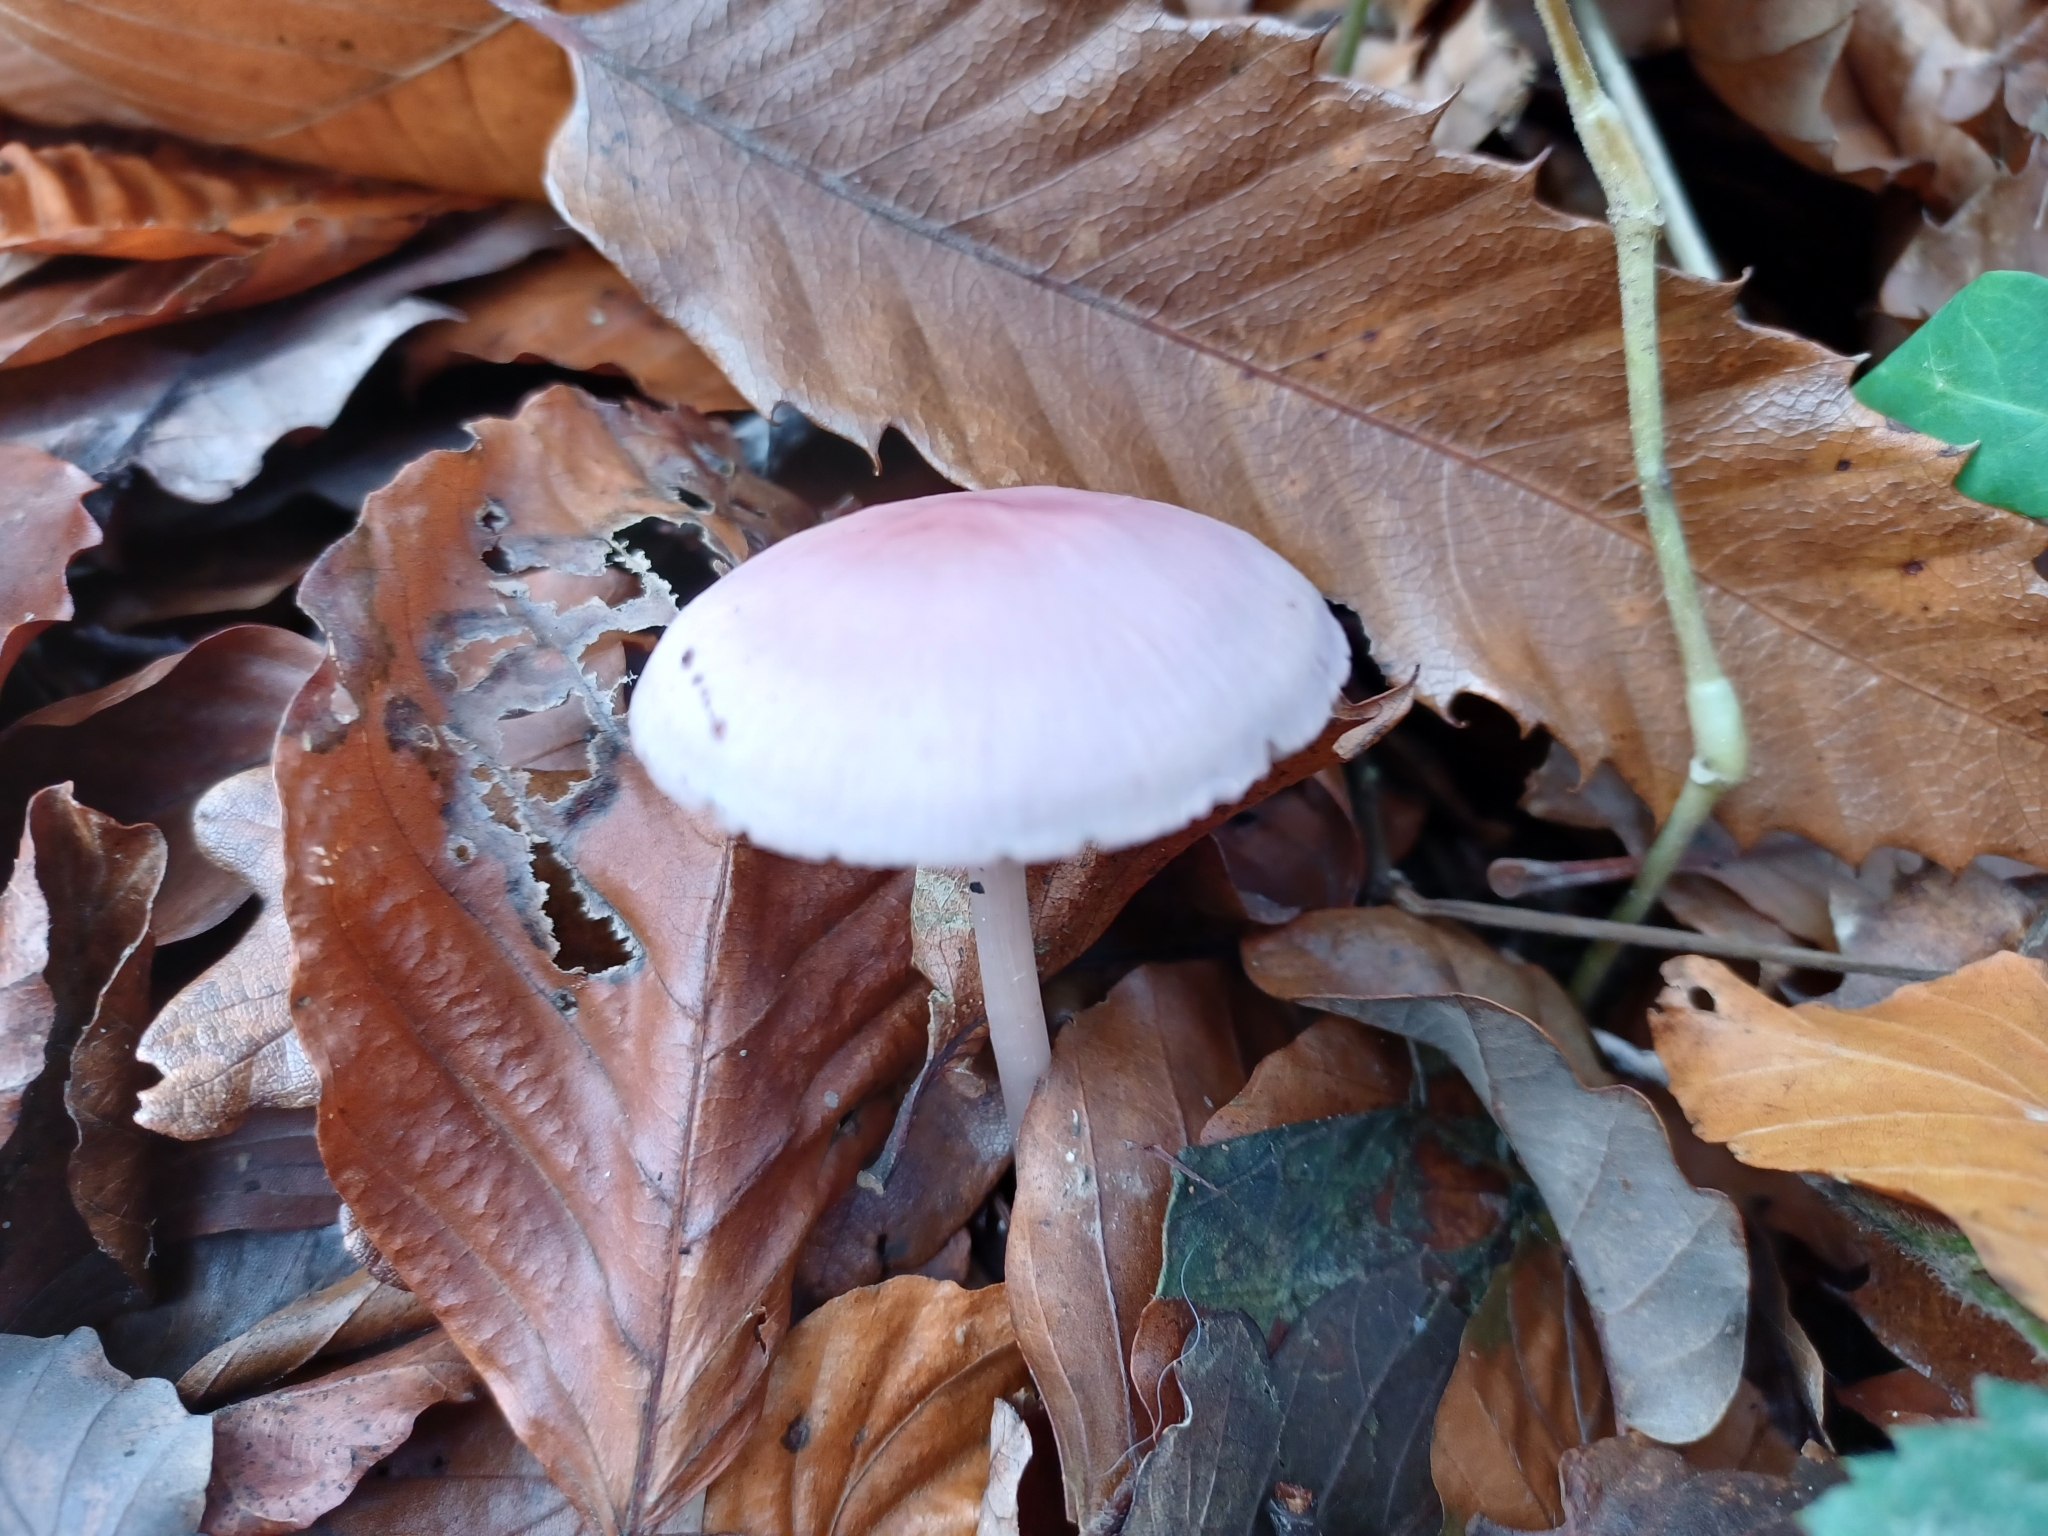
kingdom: Fungi
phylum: Basidiomycota
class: Agaricomycetes
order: Agaricales
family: Mycenaceae
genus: Mycena
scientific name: Mycena rosea
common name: Rosy bonnet
